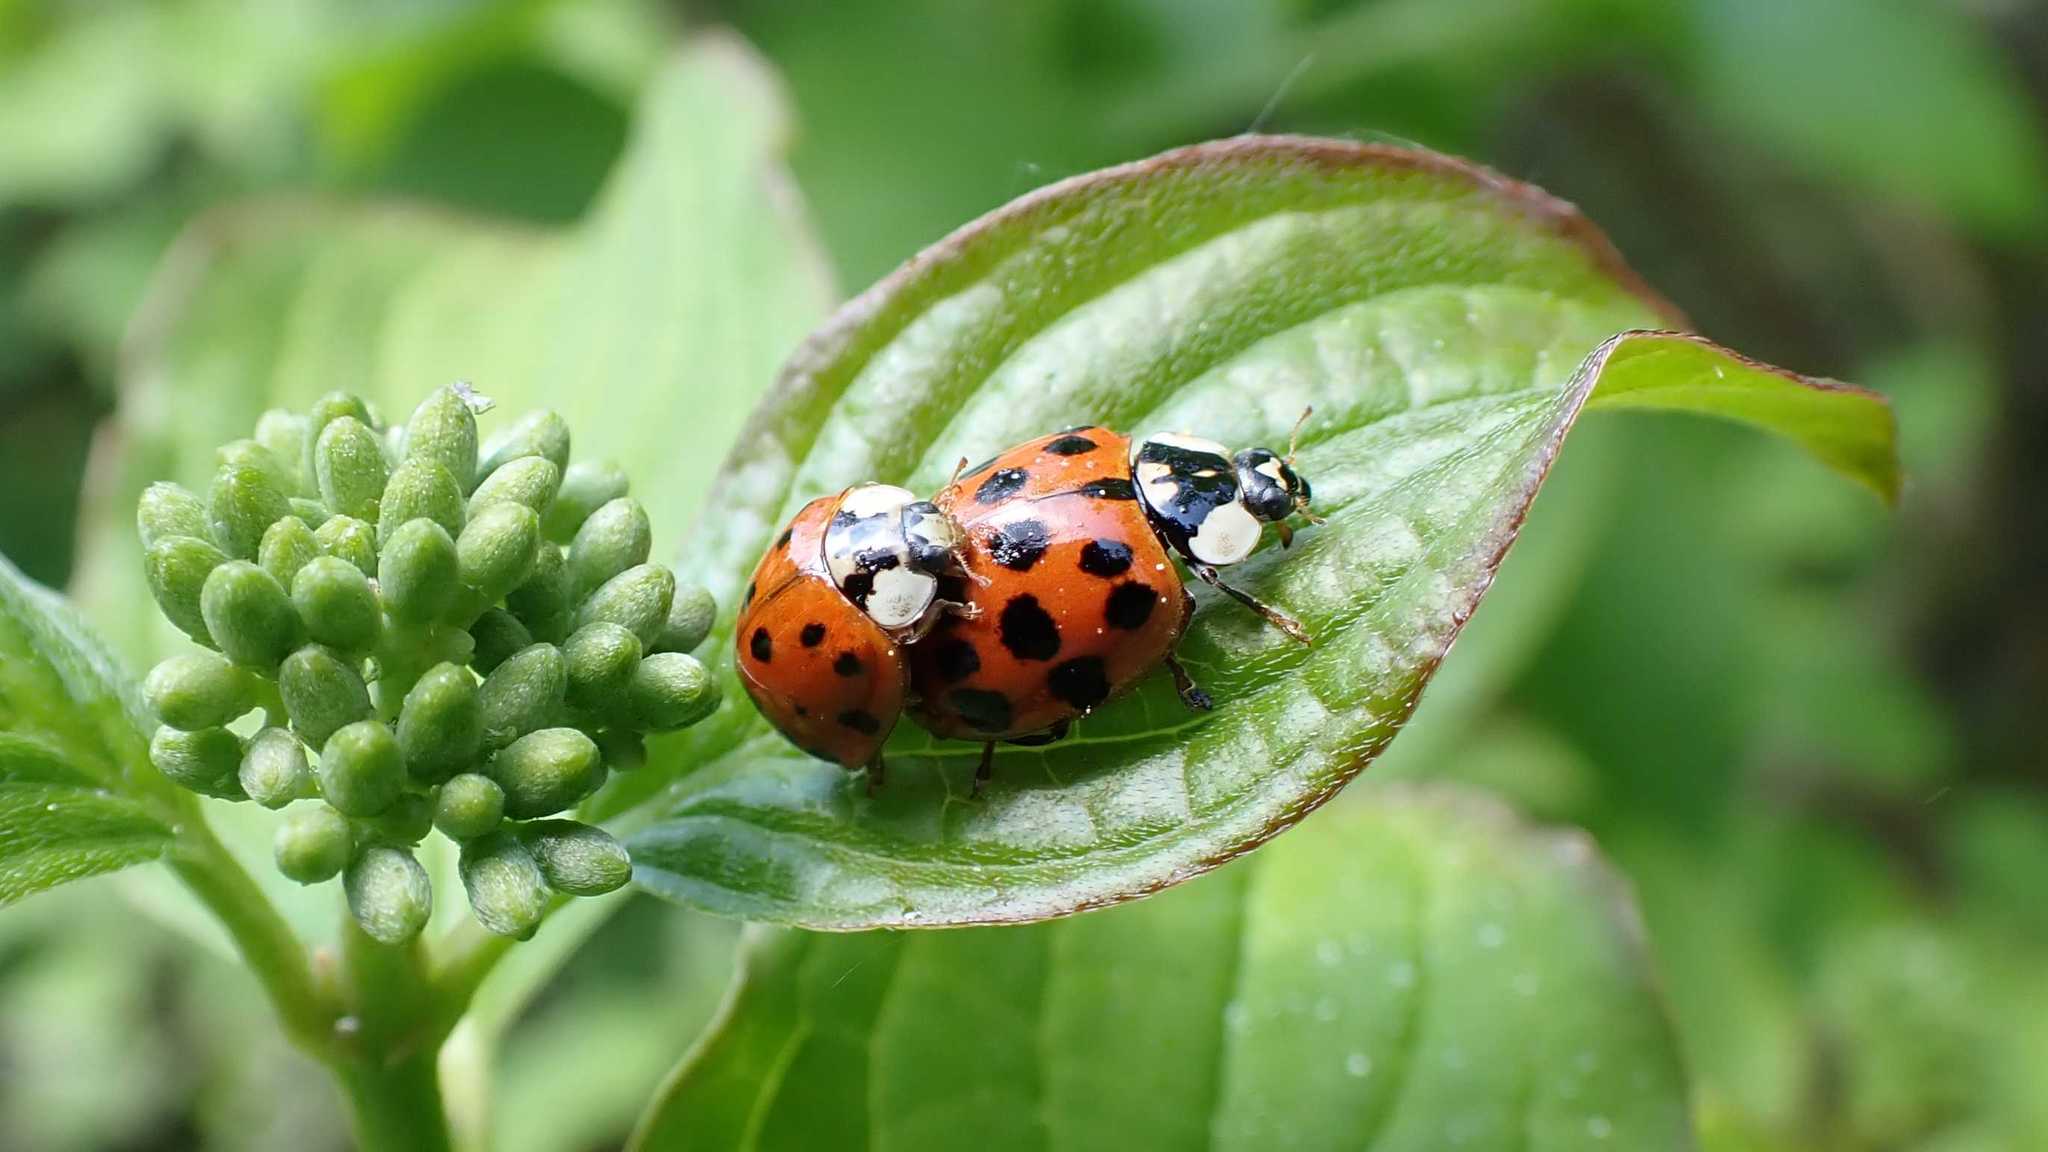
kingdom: Animalia
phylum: Arthropoda
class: Insecta
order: Coleoptera
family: Coccinellidae
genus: Harmonia
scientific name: Harmonia axyridis
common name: Harlequin ladybird
